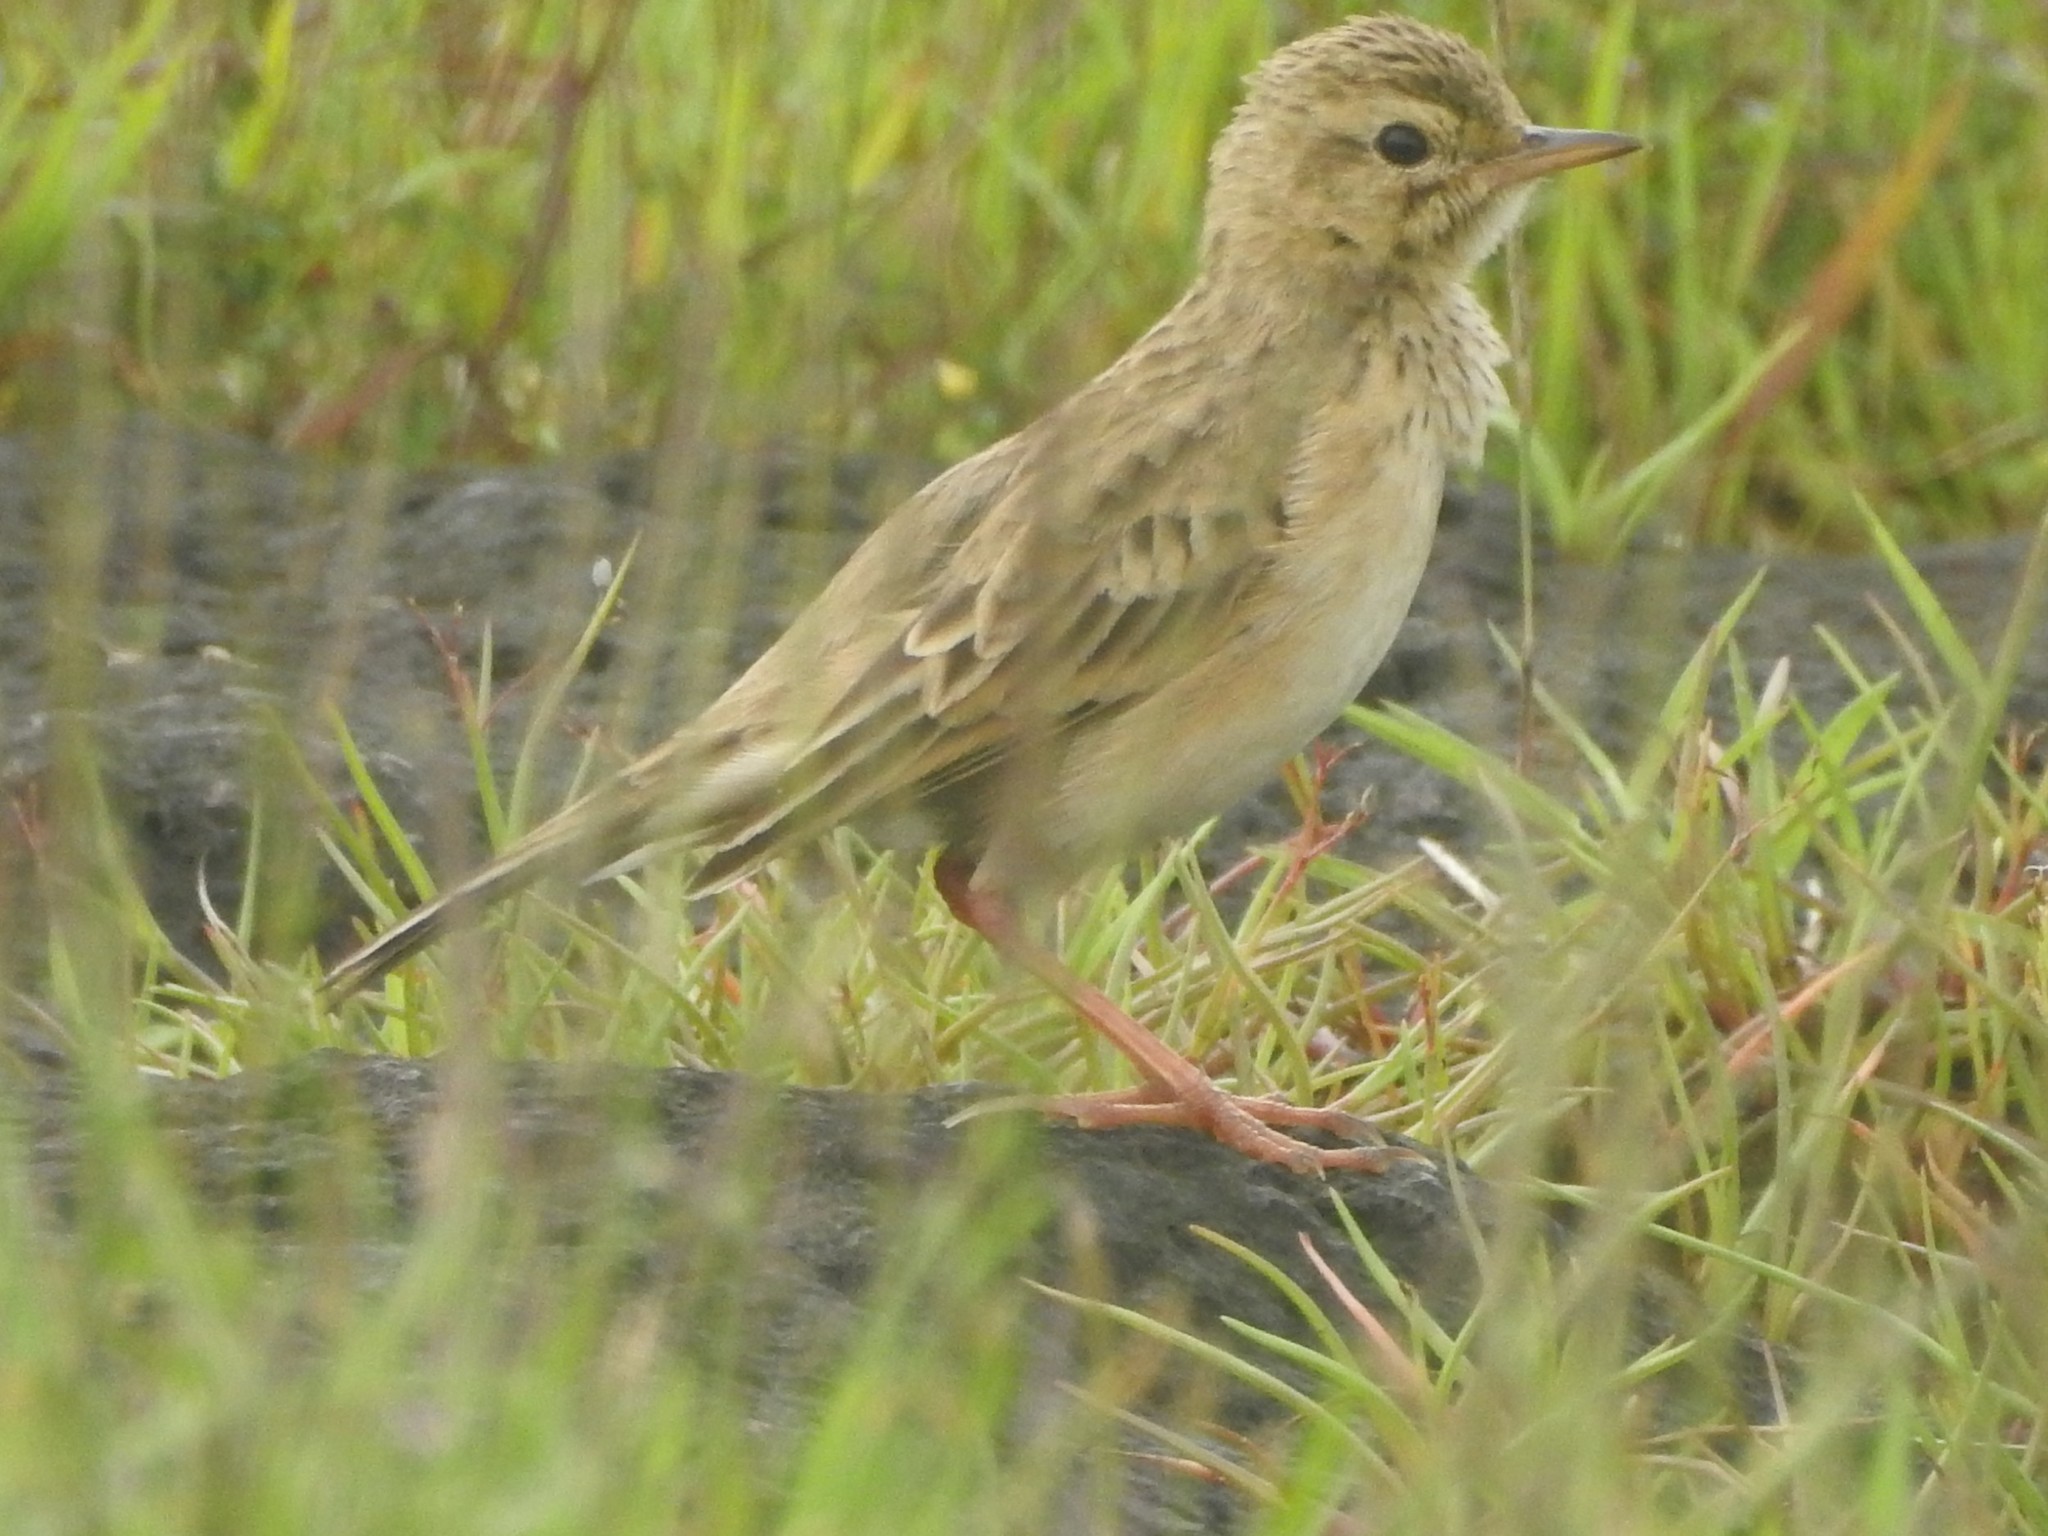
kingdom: Animalia
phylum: Chordata
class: Aves
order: Passeriformes
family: Motacillidae
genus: Anthus
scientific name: Anthus rufulus
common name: Paddyfield pipit
